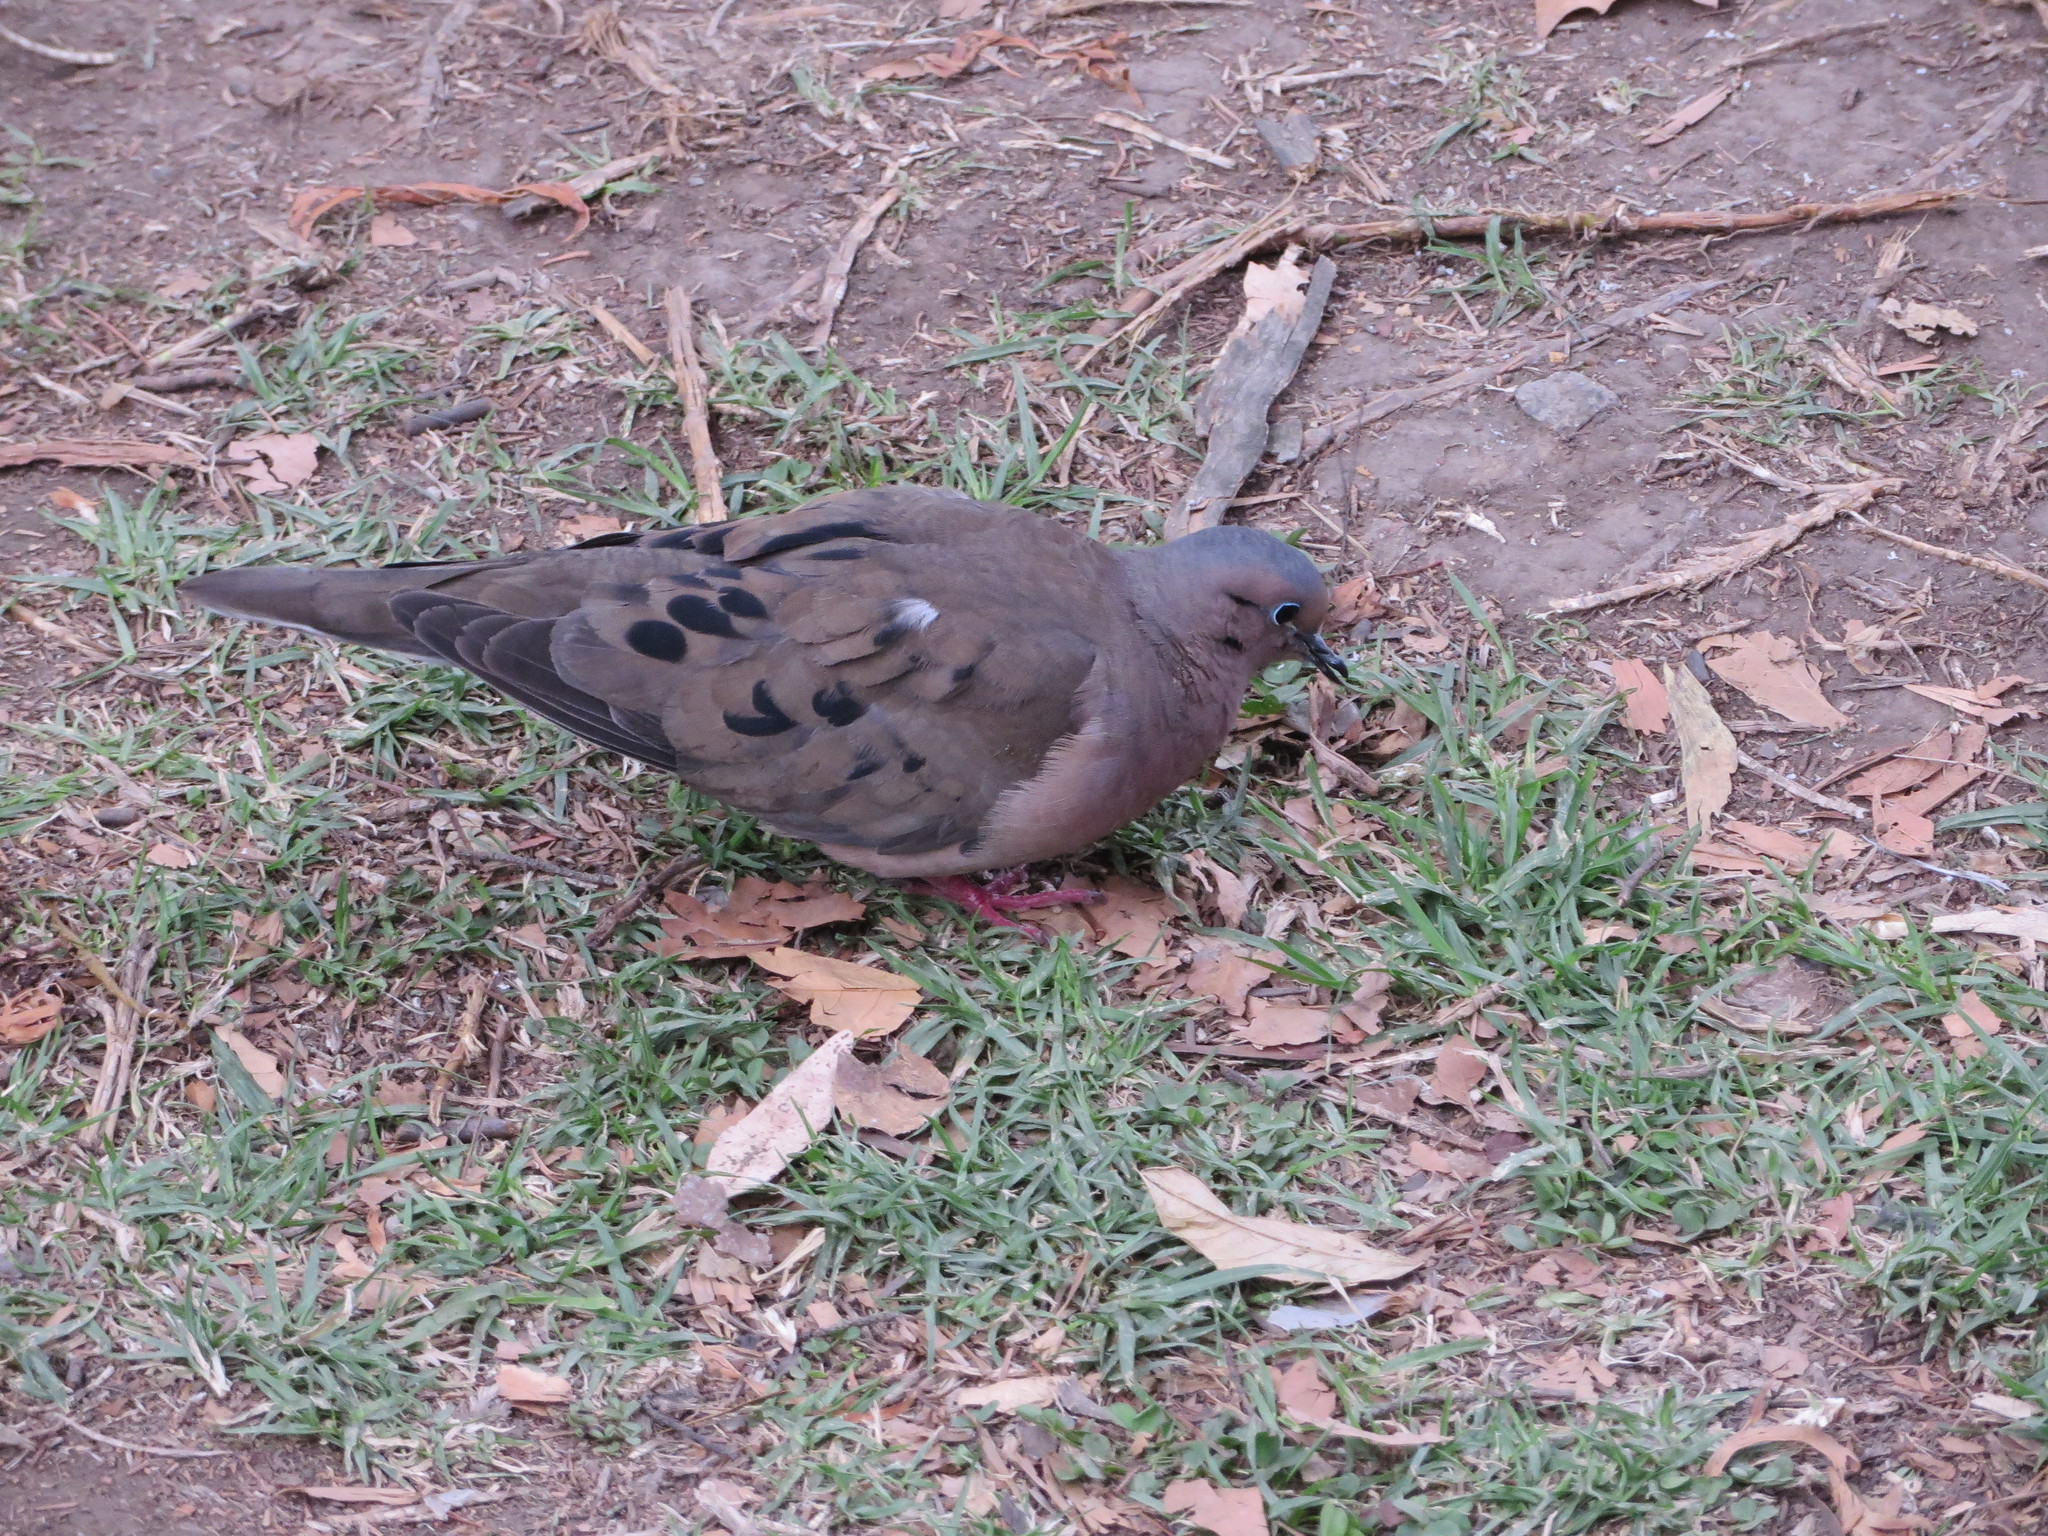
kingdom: Animalia
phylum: Chordata
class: Aves
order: Columbiformes
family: Columbidae
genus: Zenaida
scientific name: Zenaida auriculata
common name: Eared dove
